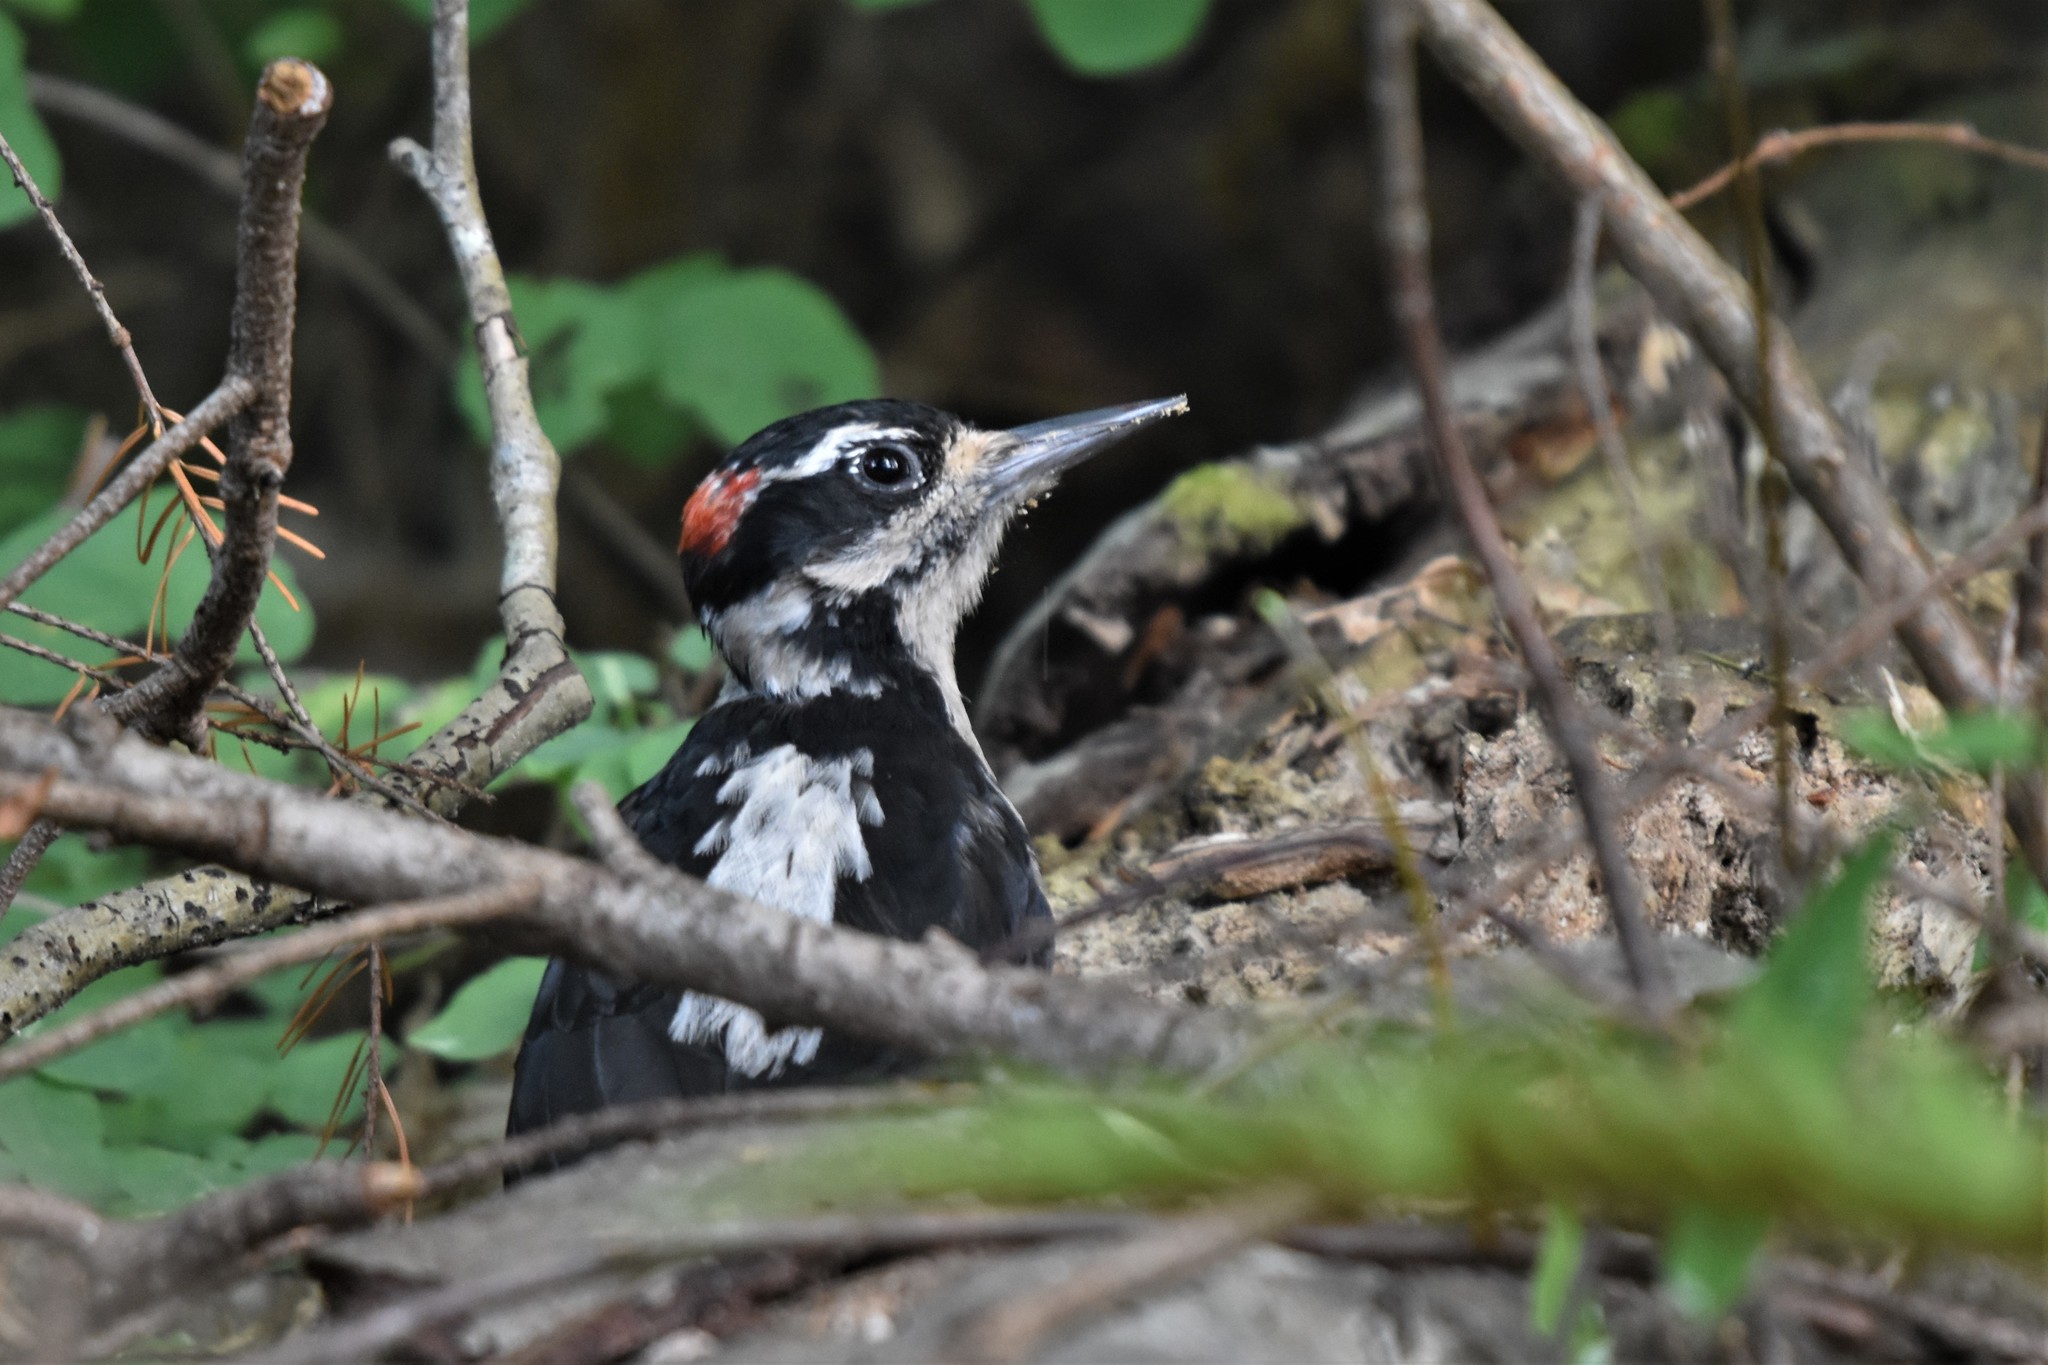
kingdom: Animalia
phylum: Chordata
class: Aves
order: Piciformes
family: Picidae
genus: Leuconotopicus
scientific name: Leuconotopicus villosus
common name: Hairy woodpecker
